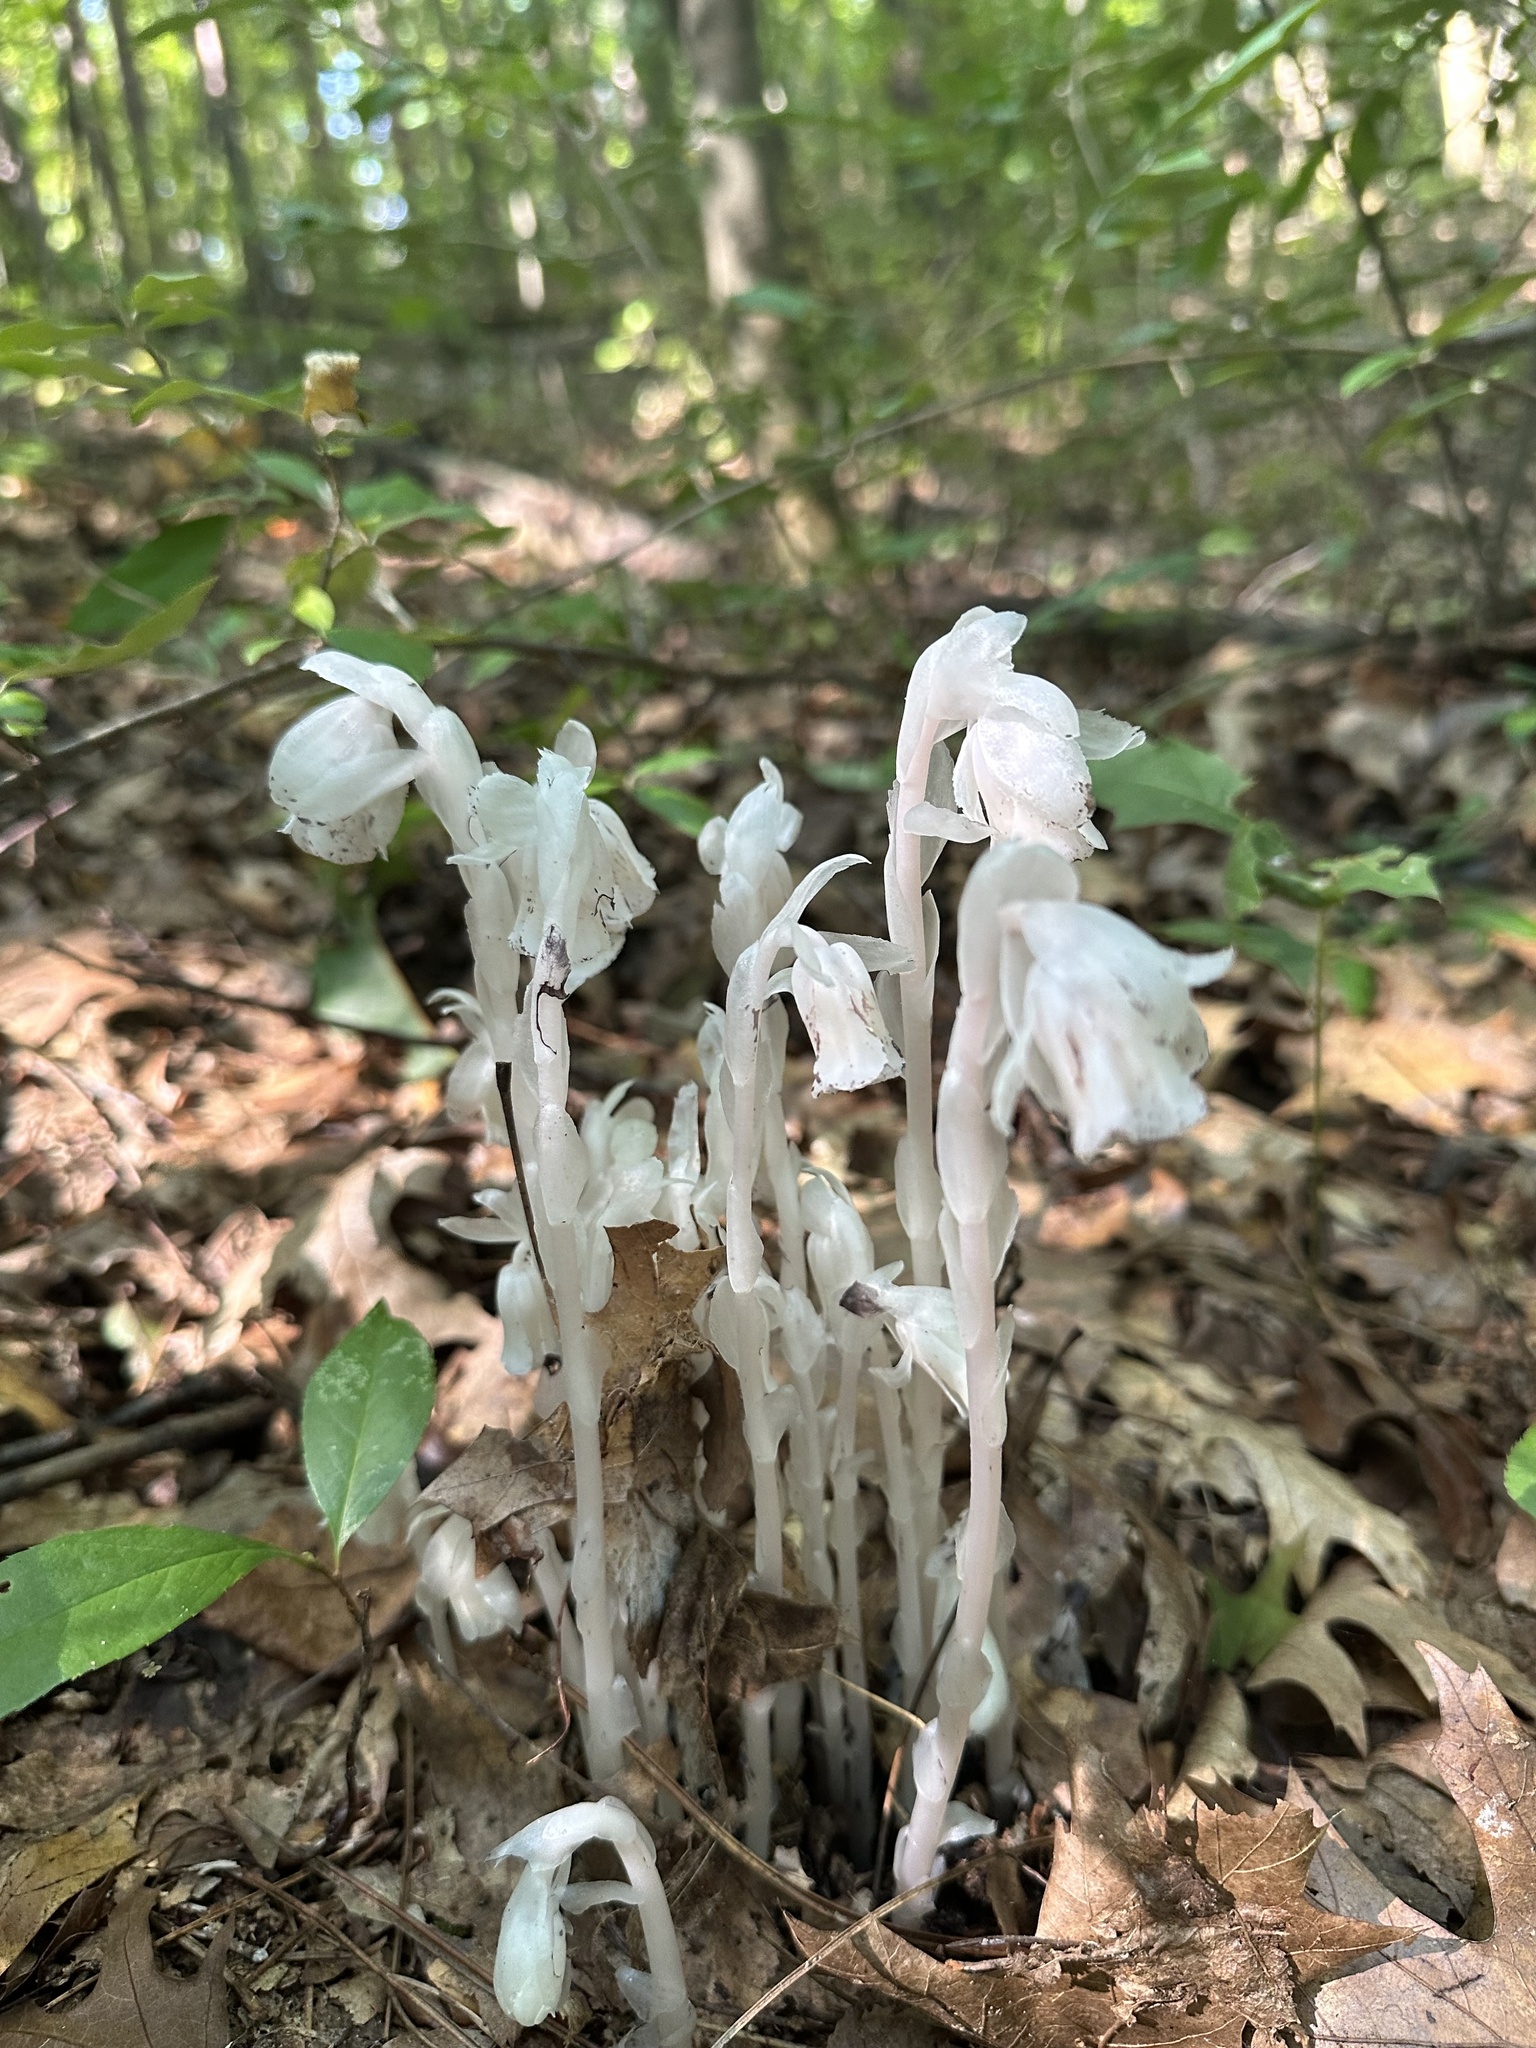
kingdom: Plantae
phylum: Tracheophyta
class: Magnoliopsida
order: Ericales
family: Ericaceae
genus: Monotropa
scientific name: Monotropa uniflora
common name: Convulsion root
